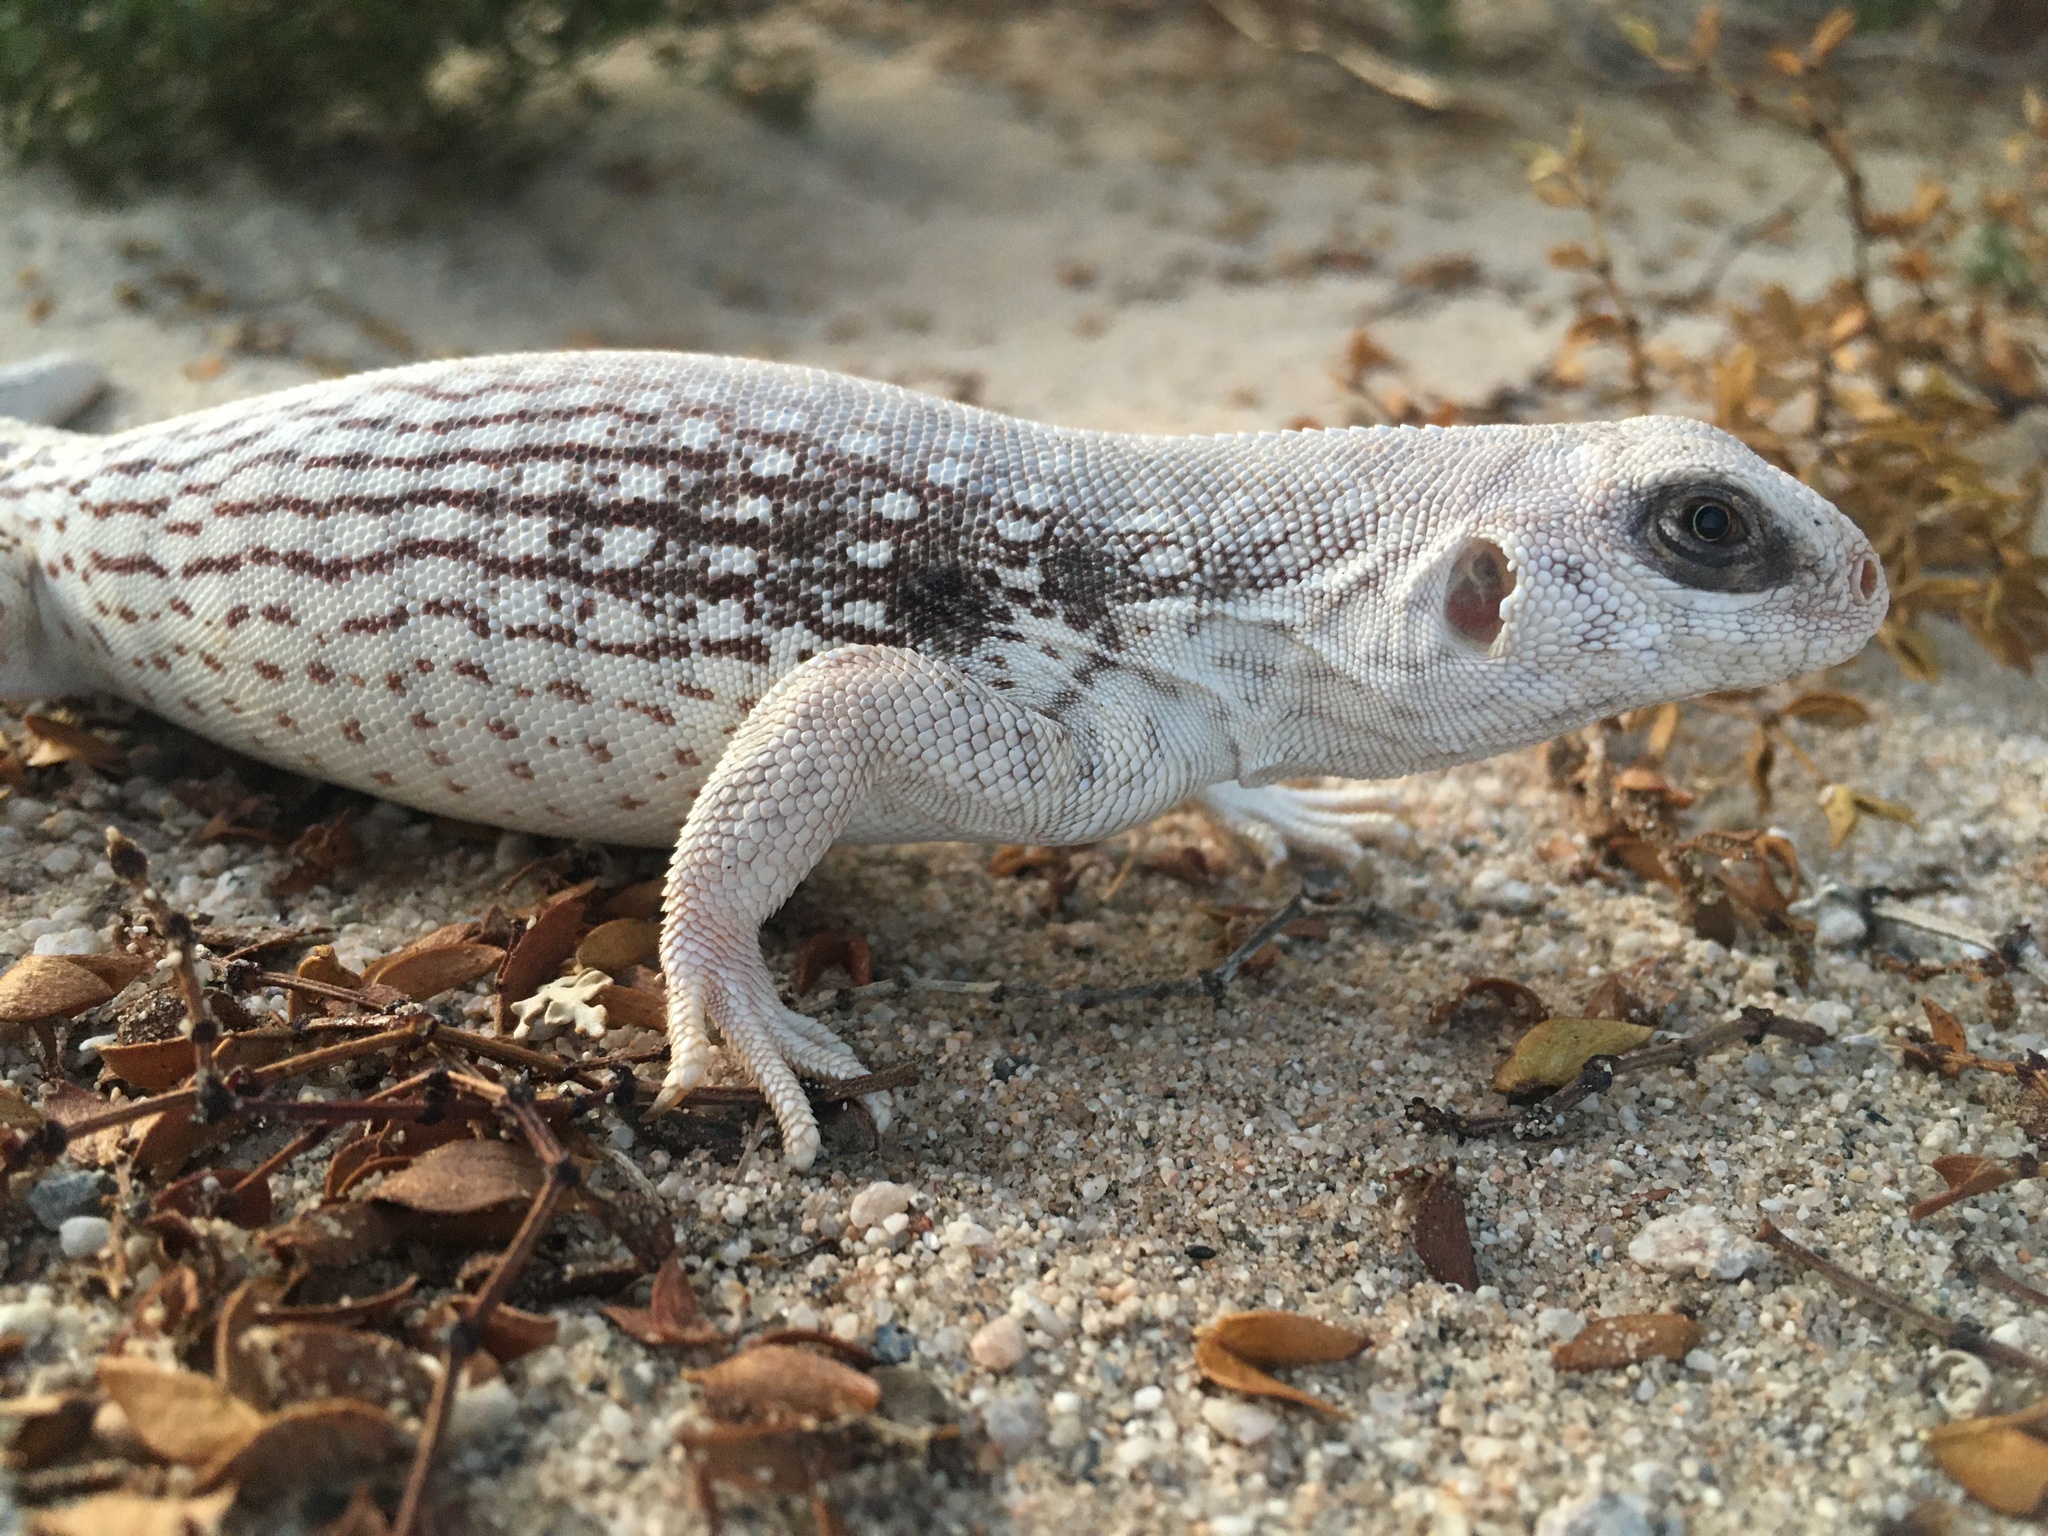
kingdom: Animalia
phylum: Chordata
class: Squamata
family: Iguanidae
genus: Dipsosaurus
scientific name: Dipsosaurus dorsalis
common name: Desert iguana
